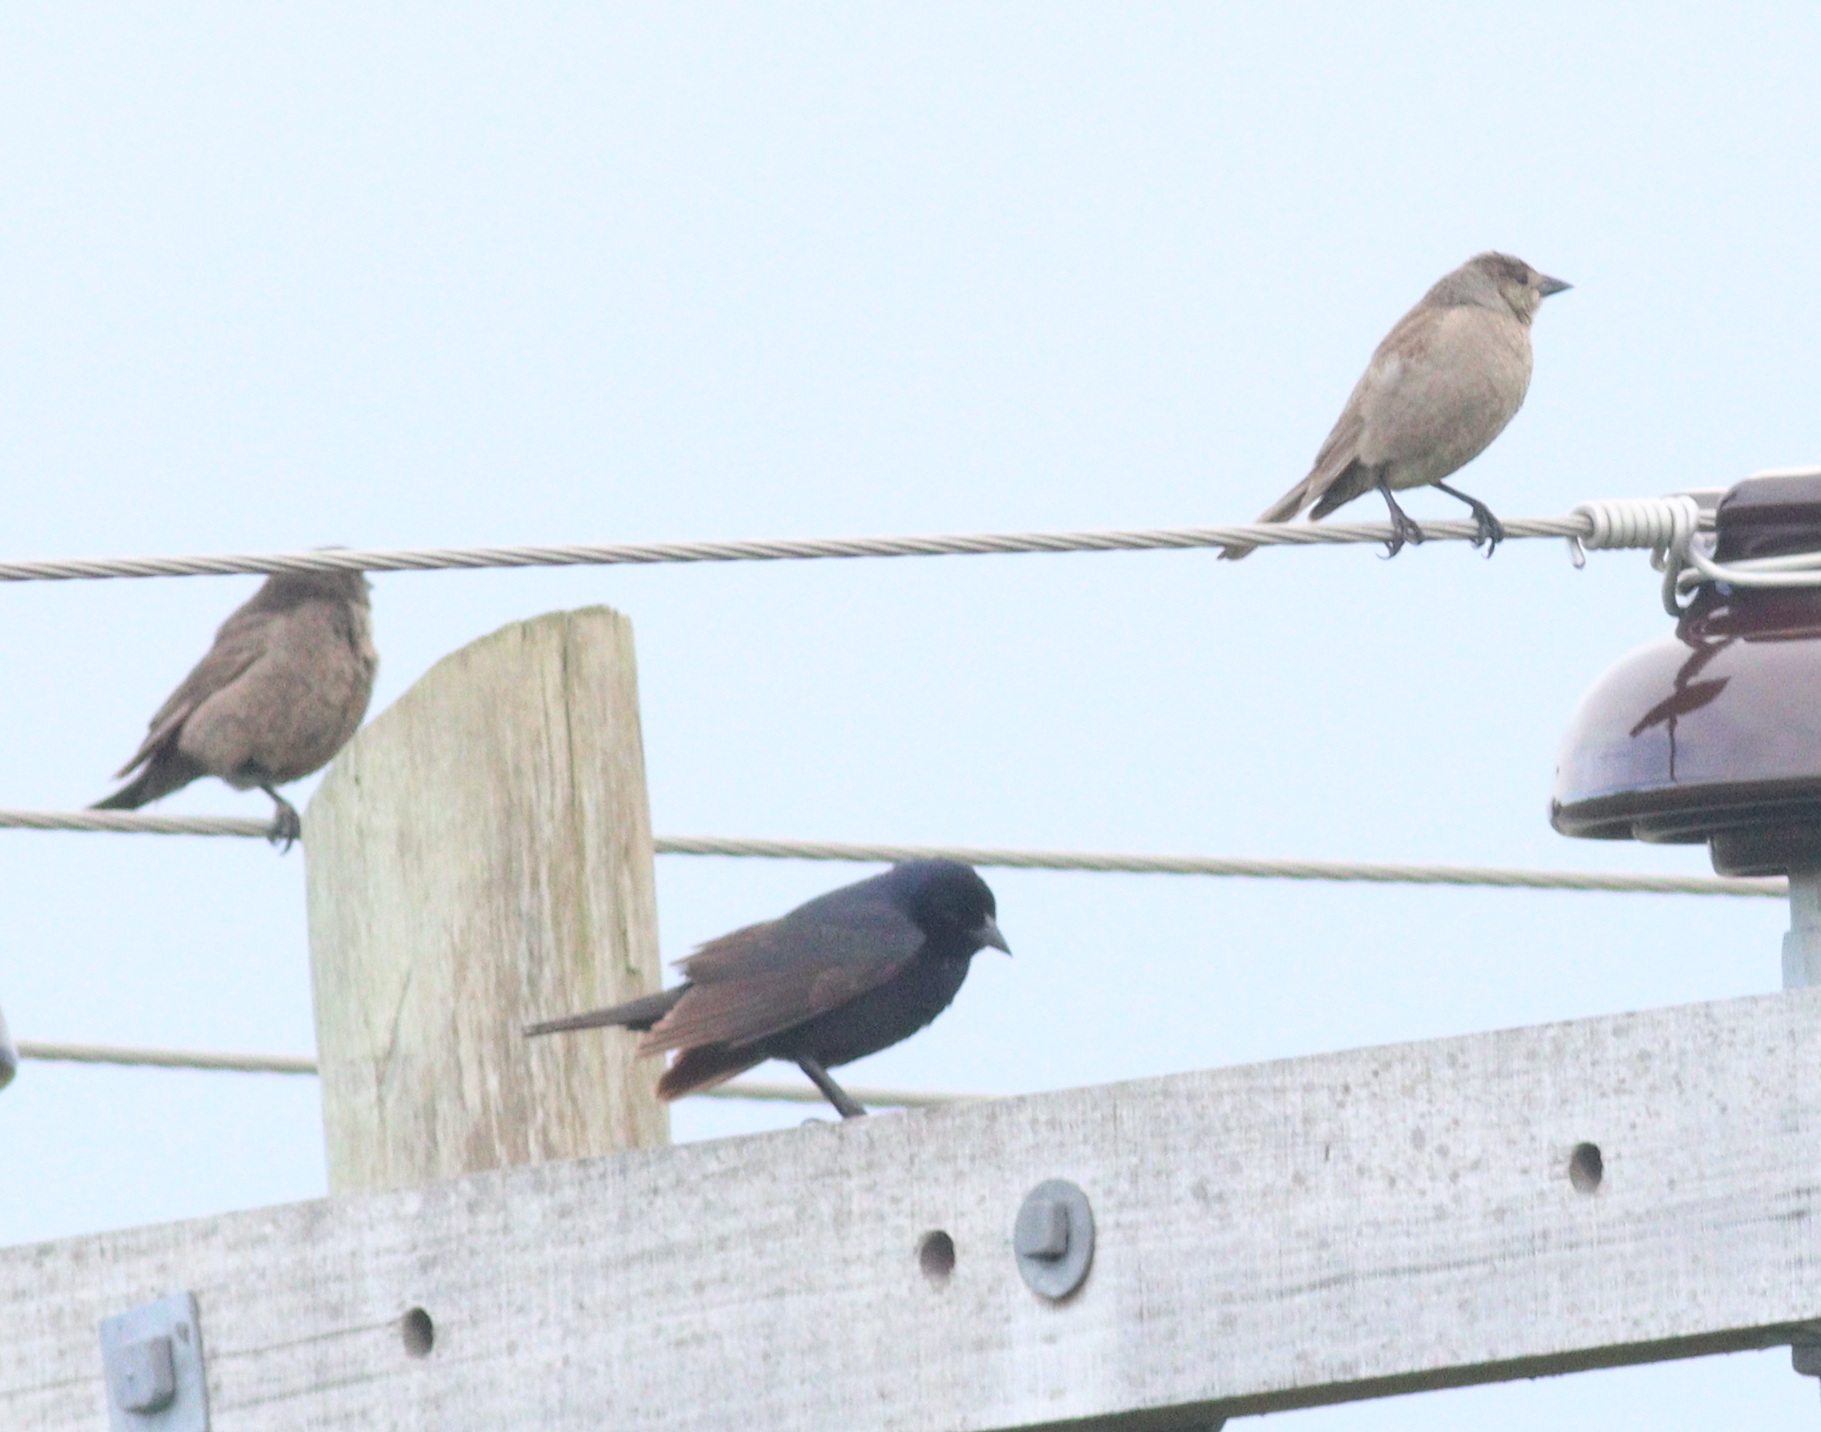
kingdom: Animalia
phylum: Chordata
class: Aves
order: Passeriformes
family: Icteridae
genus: Molothrus
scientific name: Molothrus bonariensis
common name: Shiny cowbird
